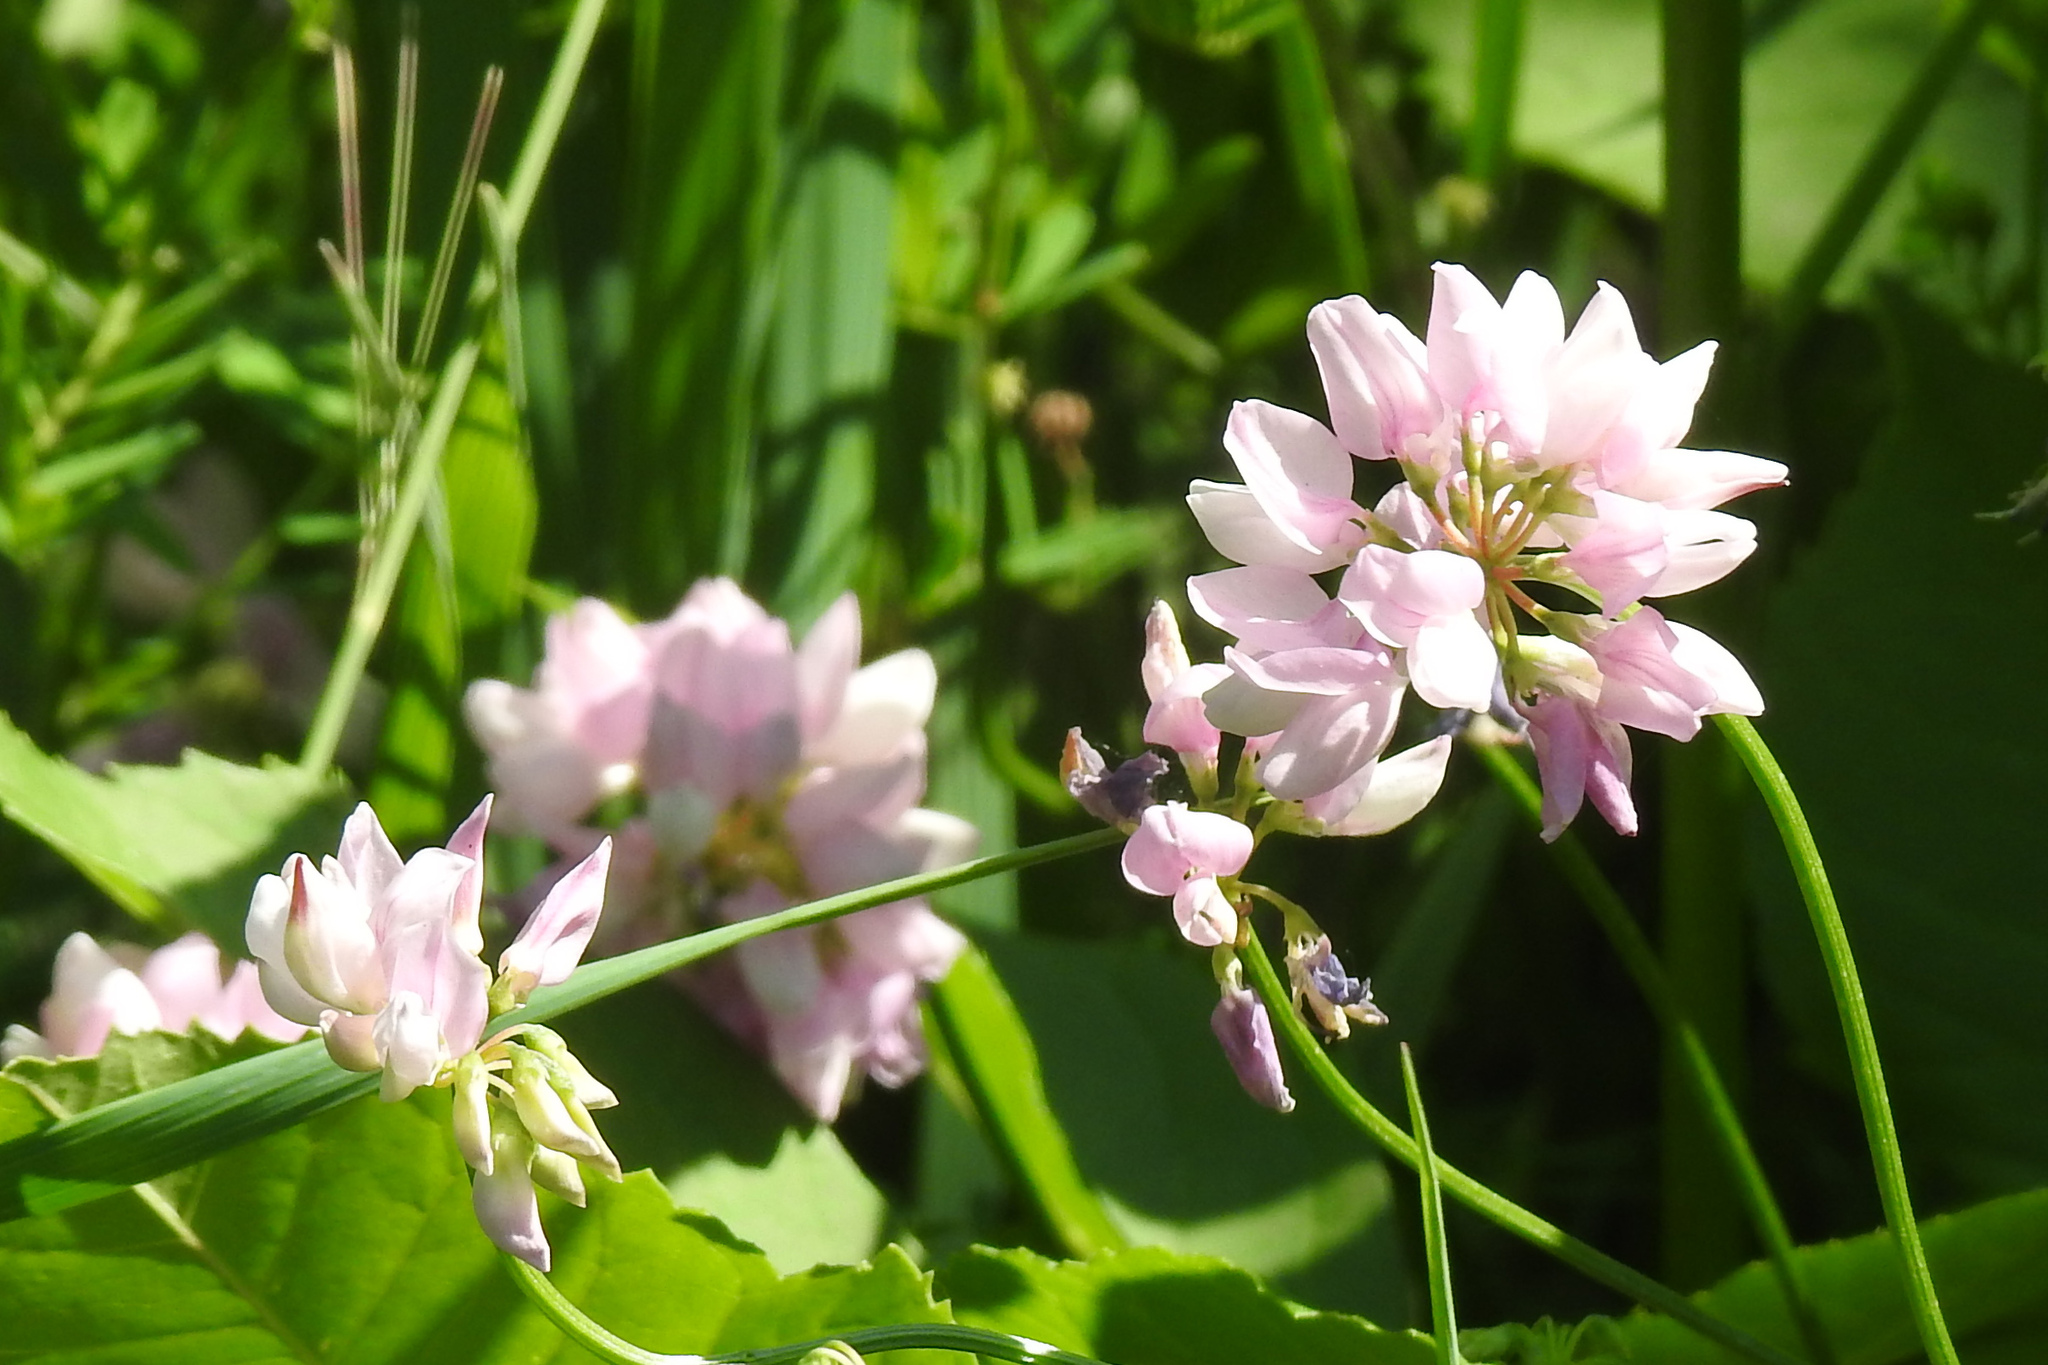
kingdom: Plantae
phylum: Tracheophyta
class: Magnoliopsida
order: Fabales
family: Fabaceae
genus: Coronilla
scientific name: Coronilla varia
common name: Crownvetch
